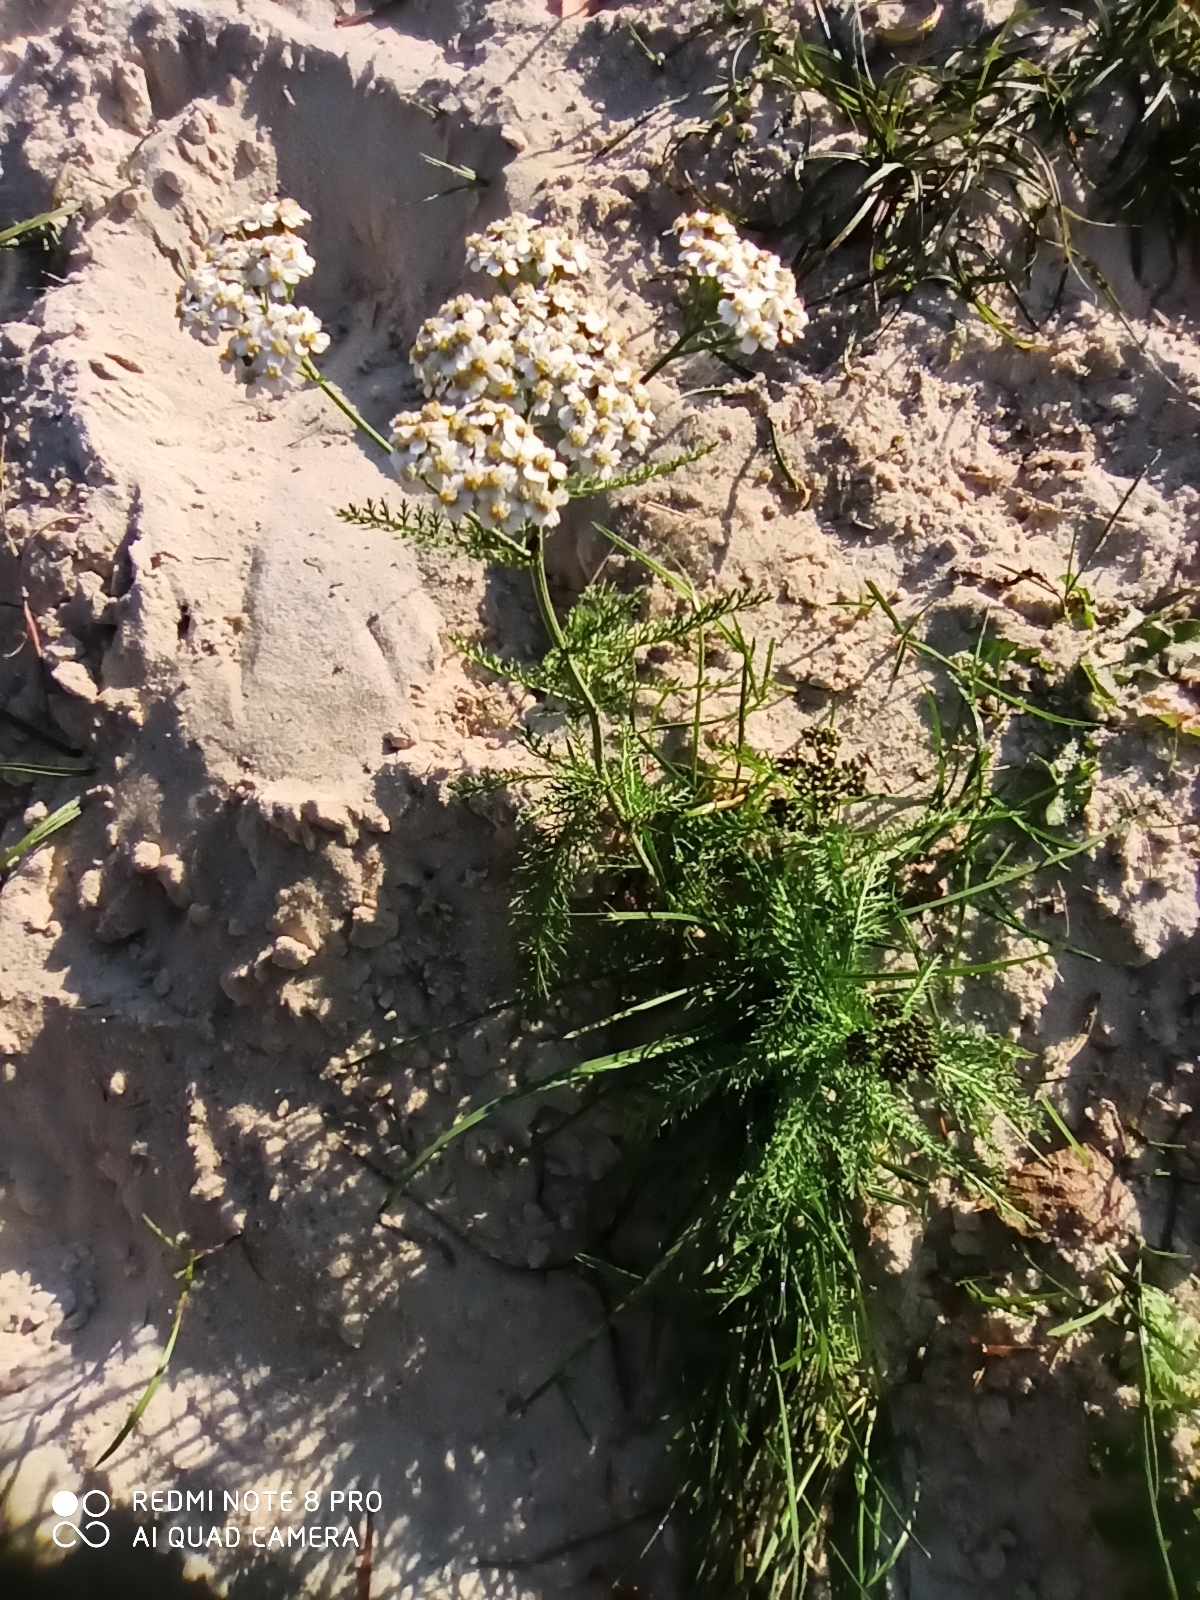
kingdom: Plantae
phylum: Tracheophyta
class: Magnoliopsida
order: Asterales
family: Asteraceae
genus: Achillea
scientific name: Achillea millefolium
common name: Yarrow
